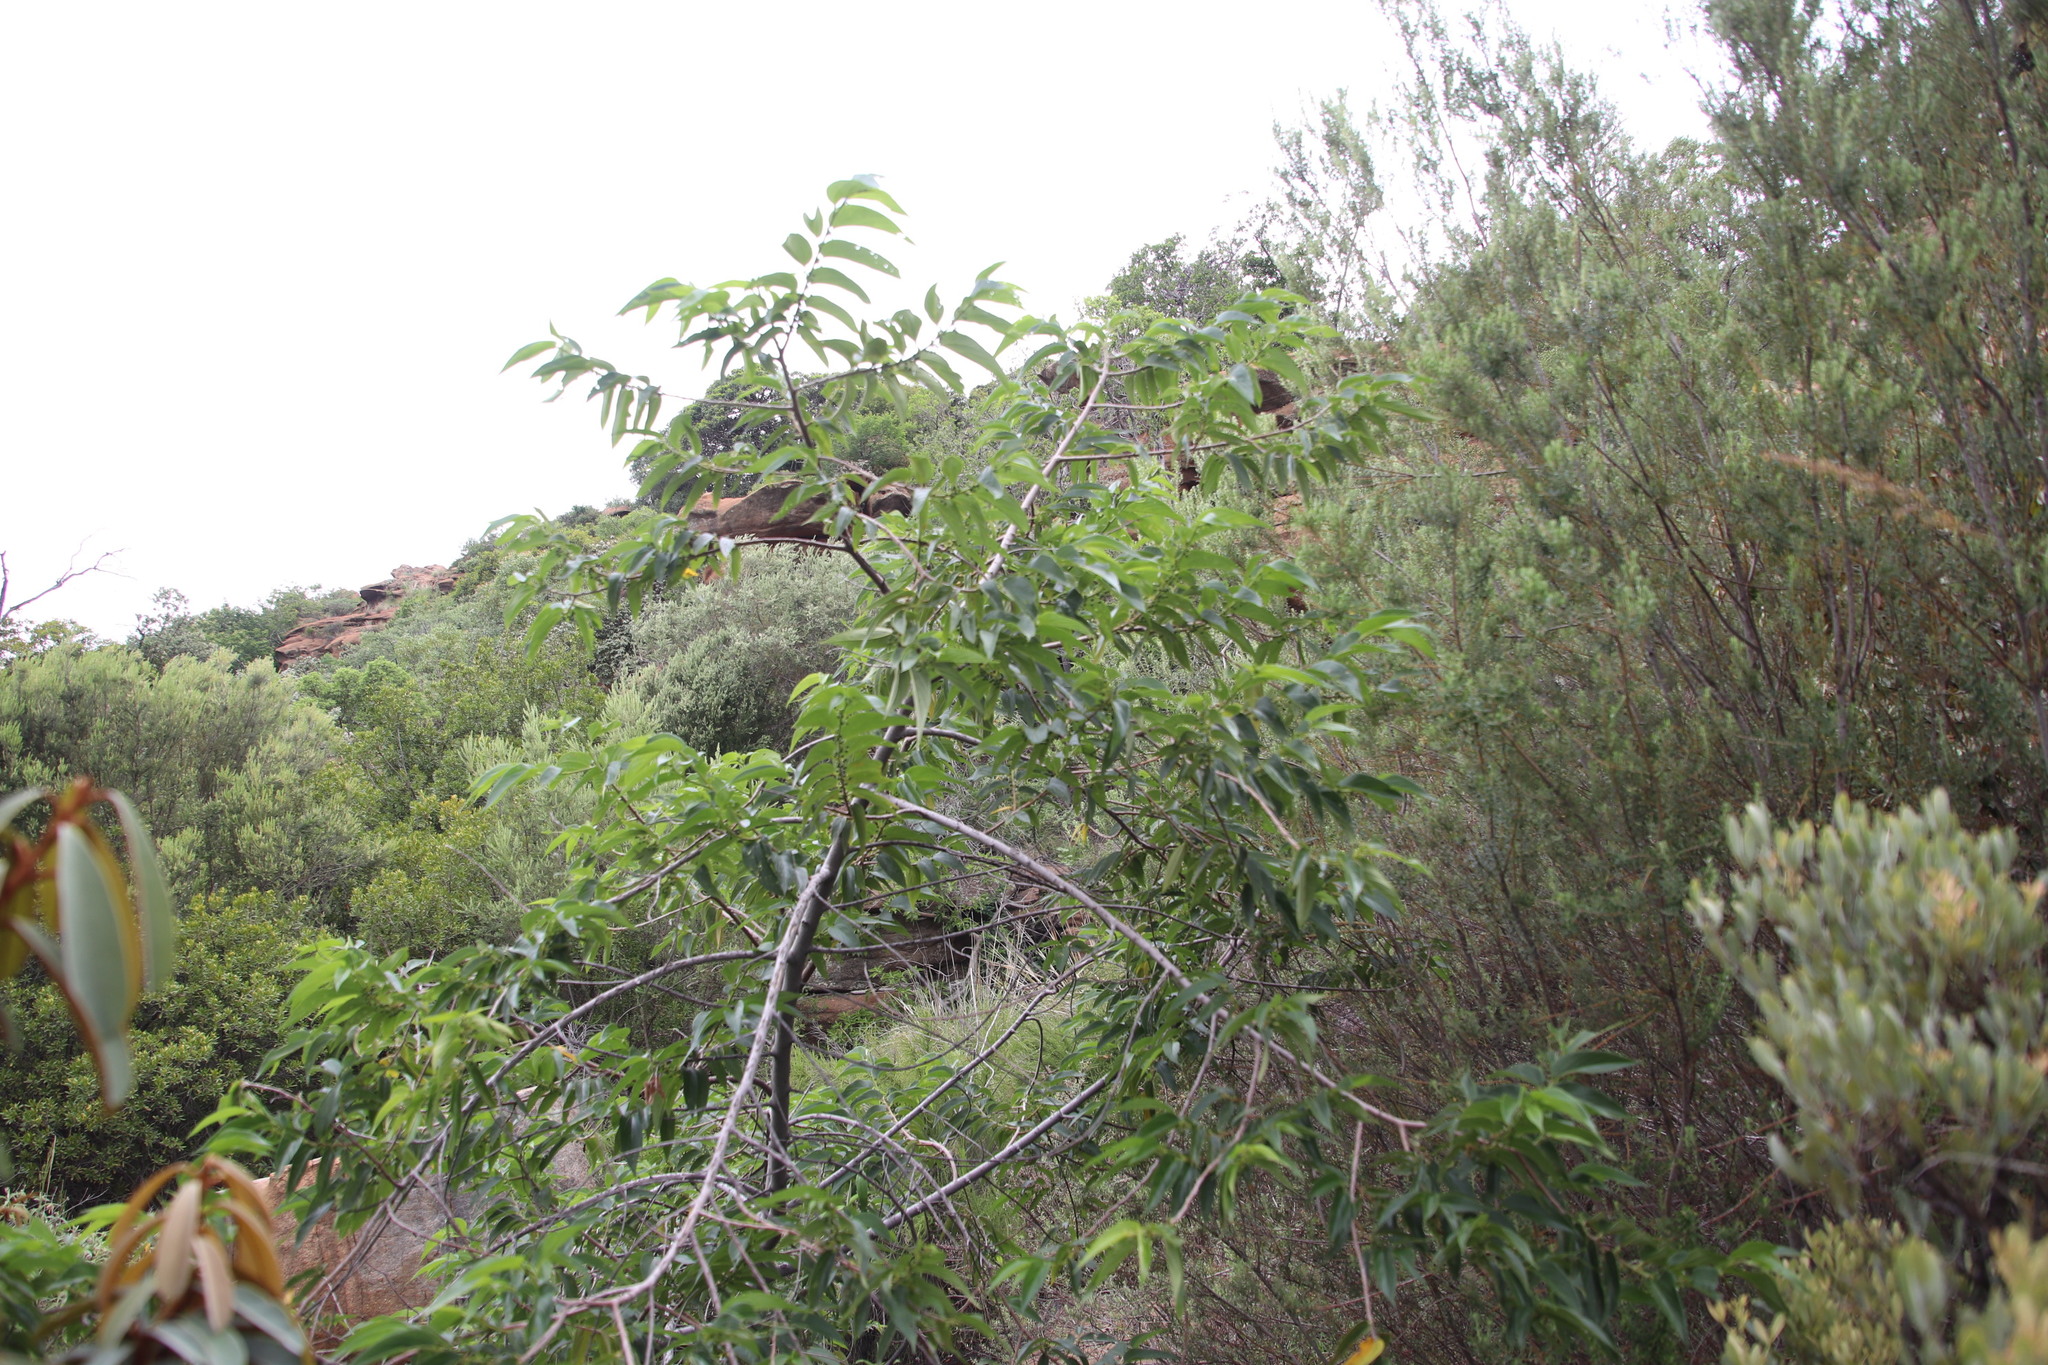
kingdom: Plantae
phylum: Tracheophyta
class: Magnoliopsida
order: Rosales
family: Cannabaceae
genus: Trema
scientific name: Trema orientale
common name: Indian charcoal tree
